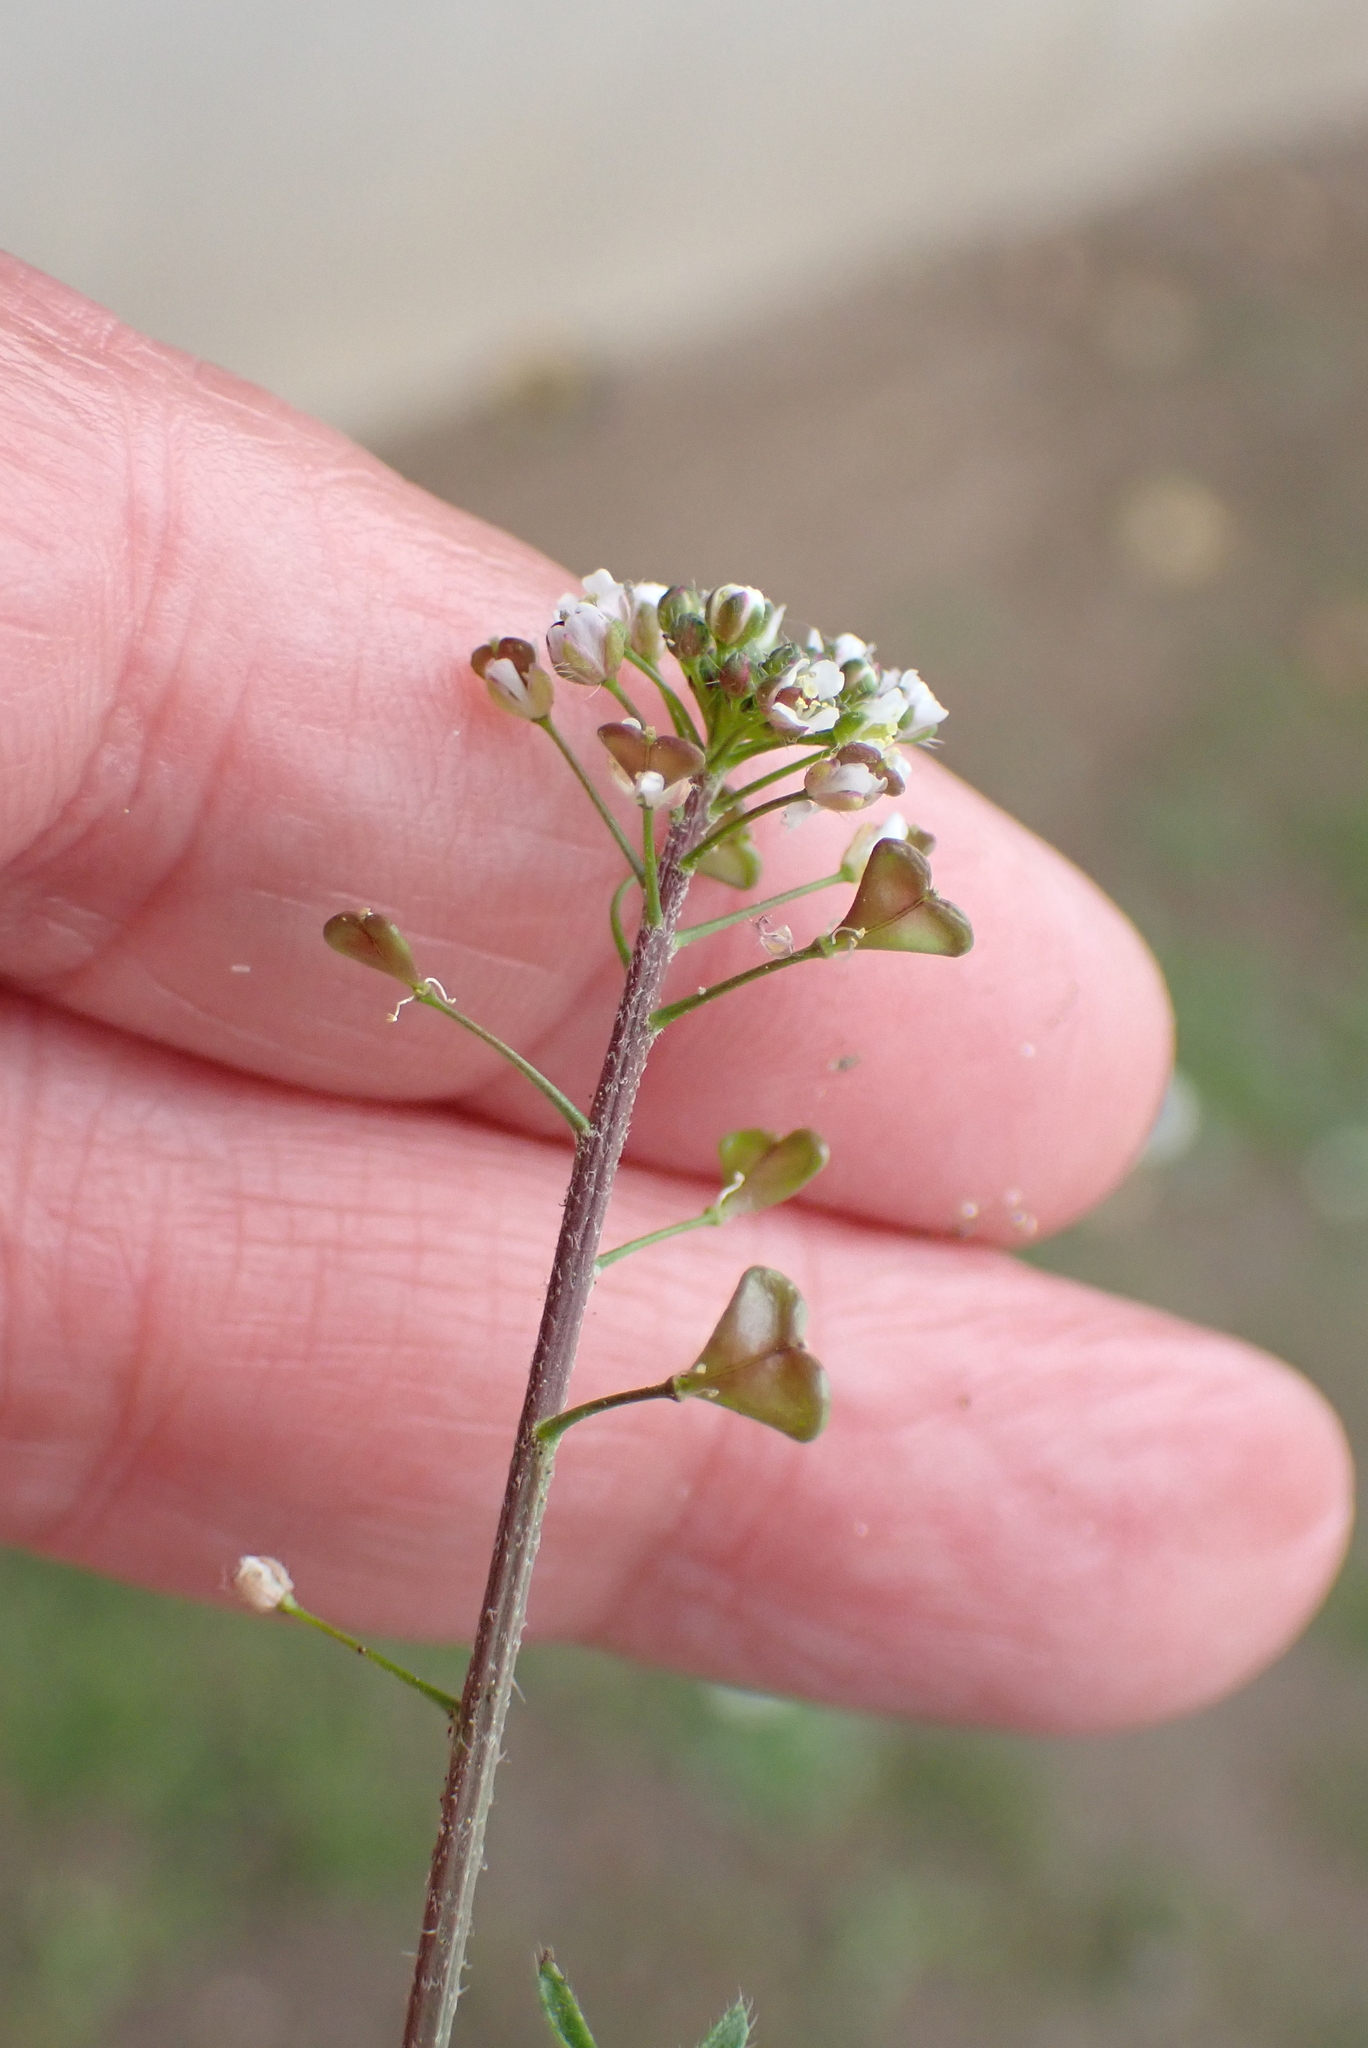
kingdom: Plantae
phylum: Tracheophyta
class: Magnoliopsida
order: Brassicales
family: Brassicaceae
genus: Capsella
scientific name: Capsella bursa-pastoris
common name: Shepherd's purse
